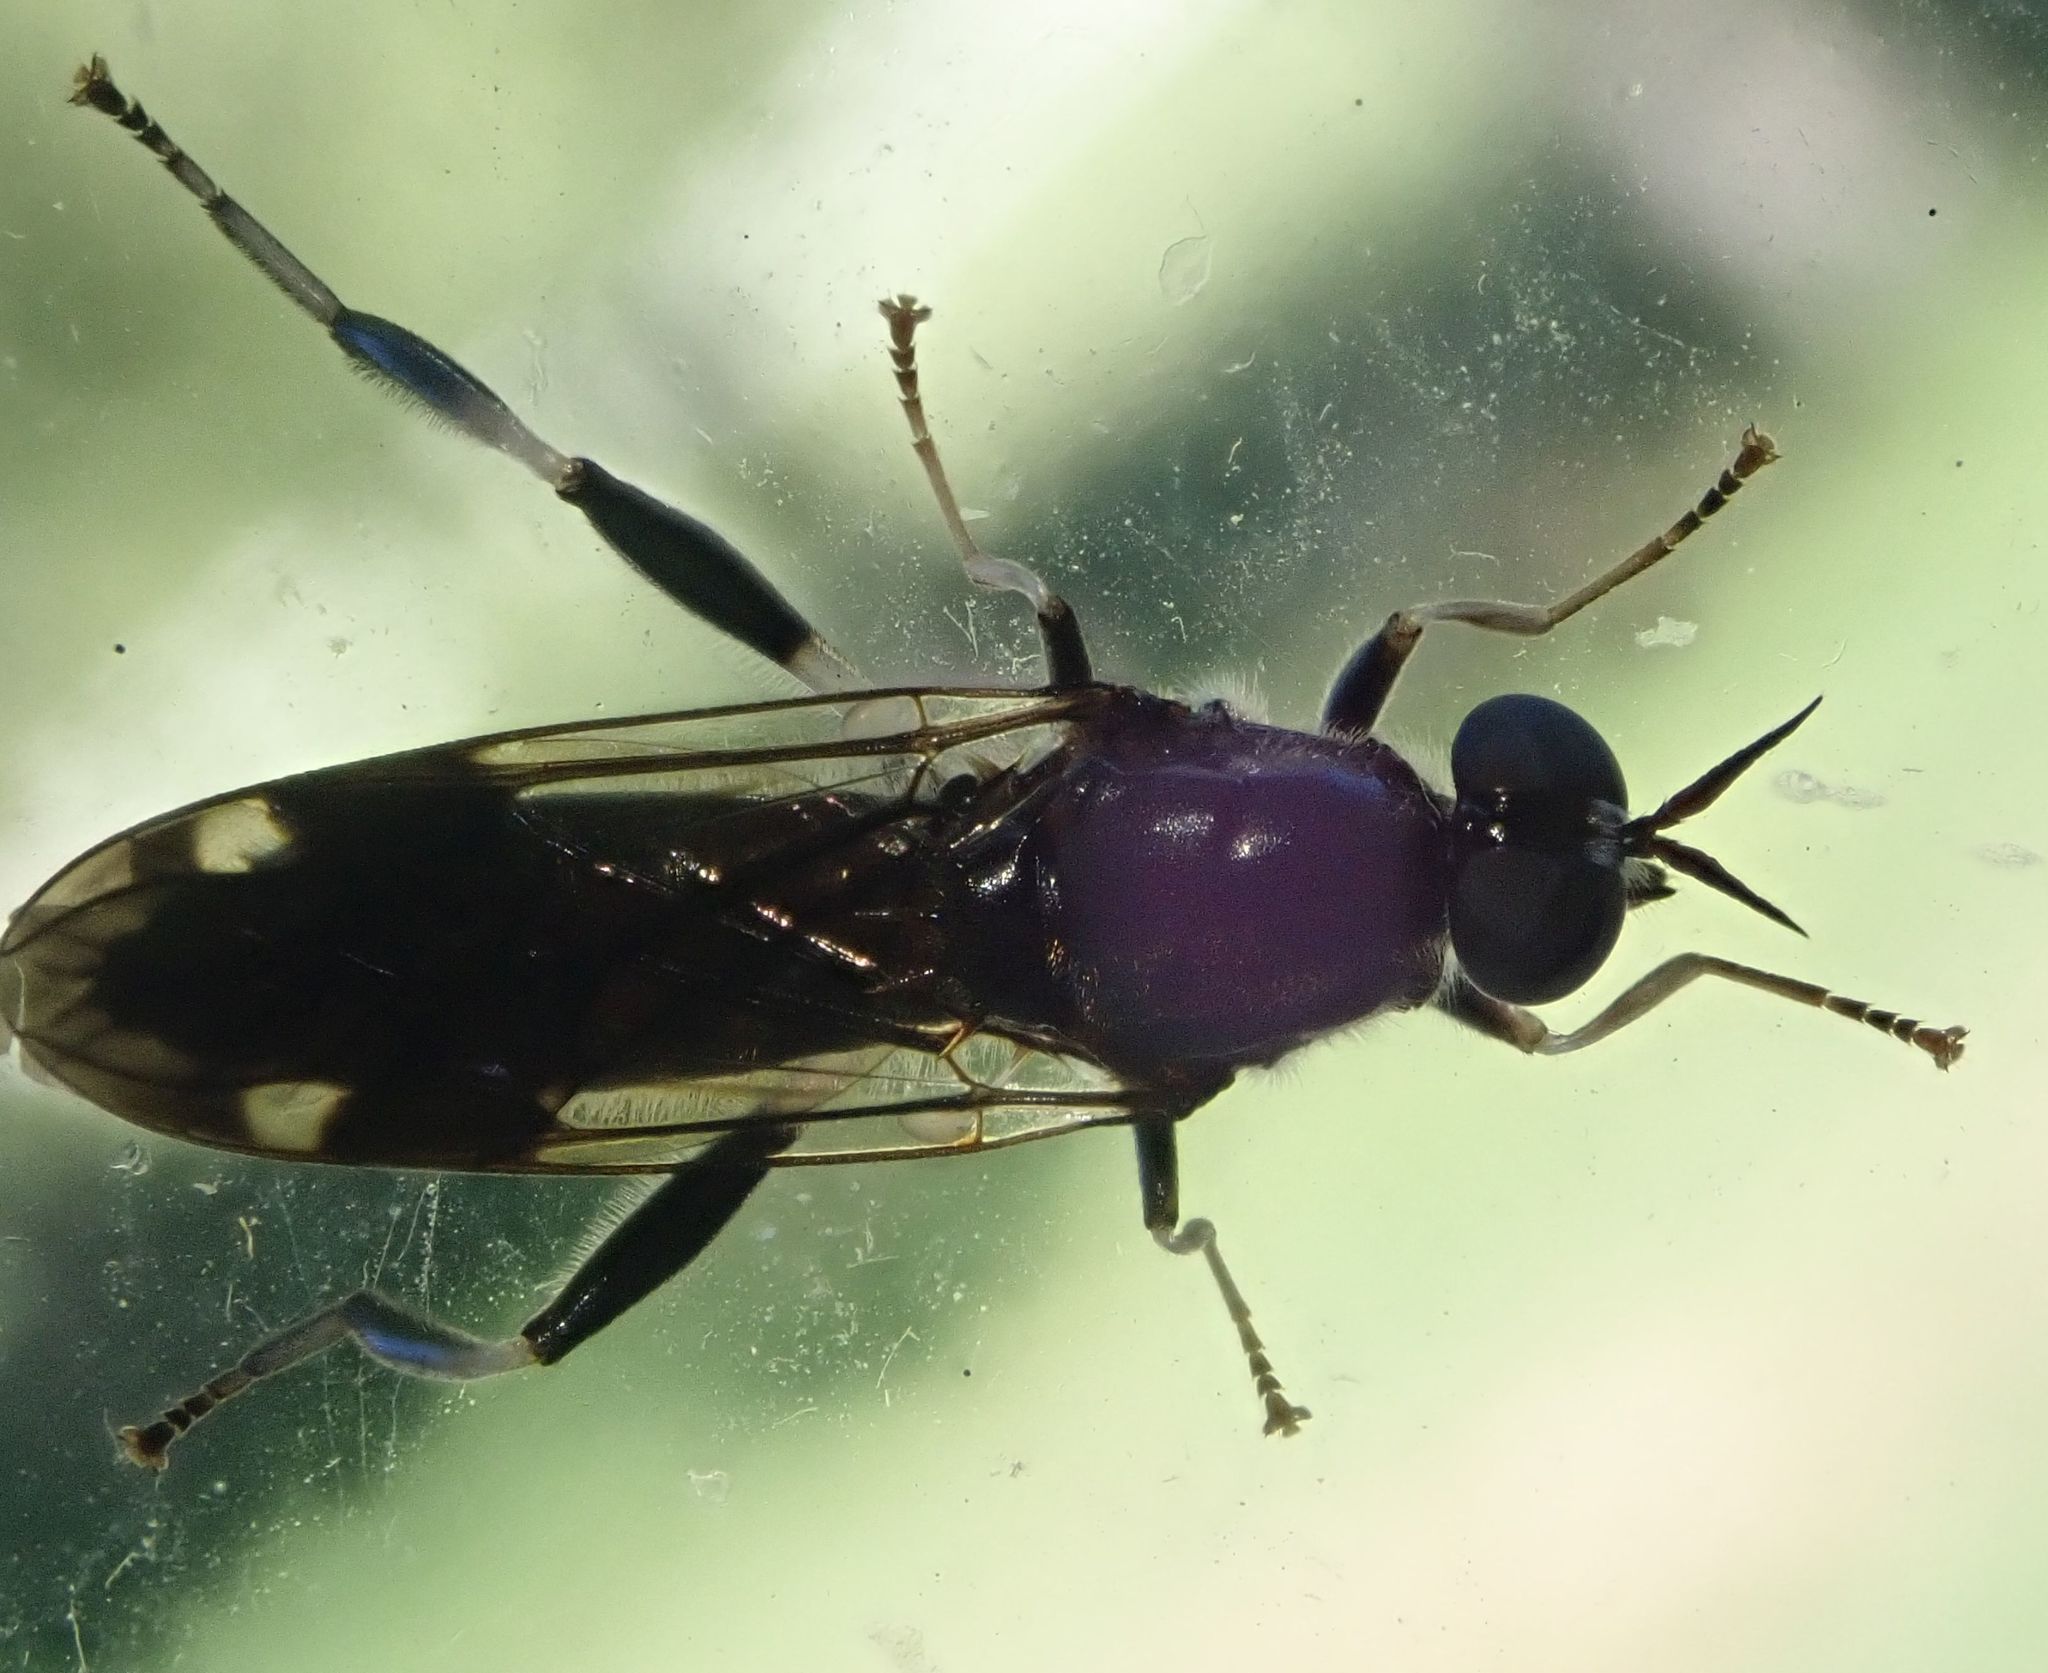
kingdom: Animalia
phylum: Arthropoda
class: Insecta
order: Diptera
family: Stratiomyidae
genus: Exaireta
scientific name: Exaireta spinigera
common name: Blue soldier fly
